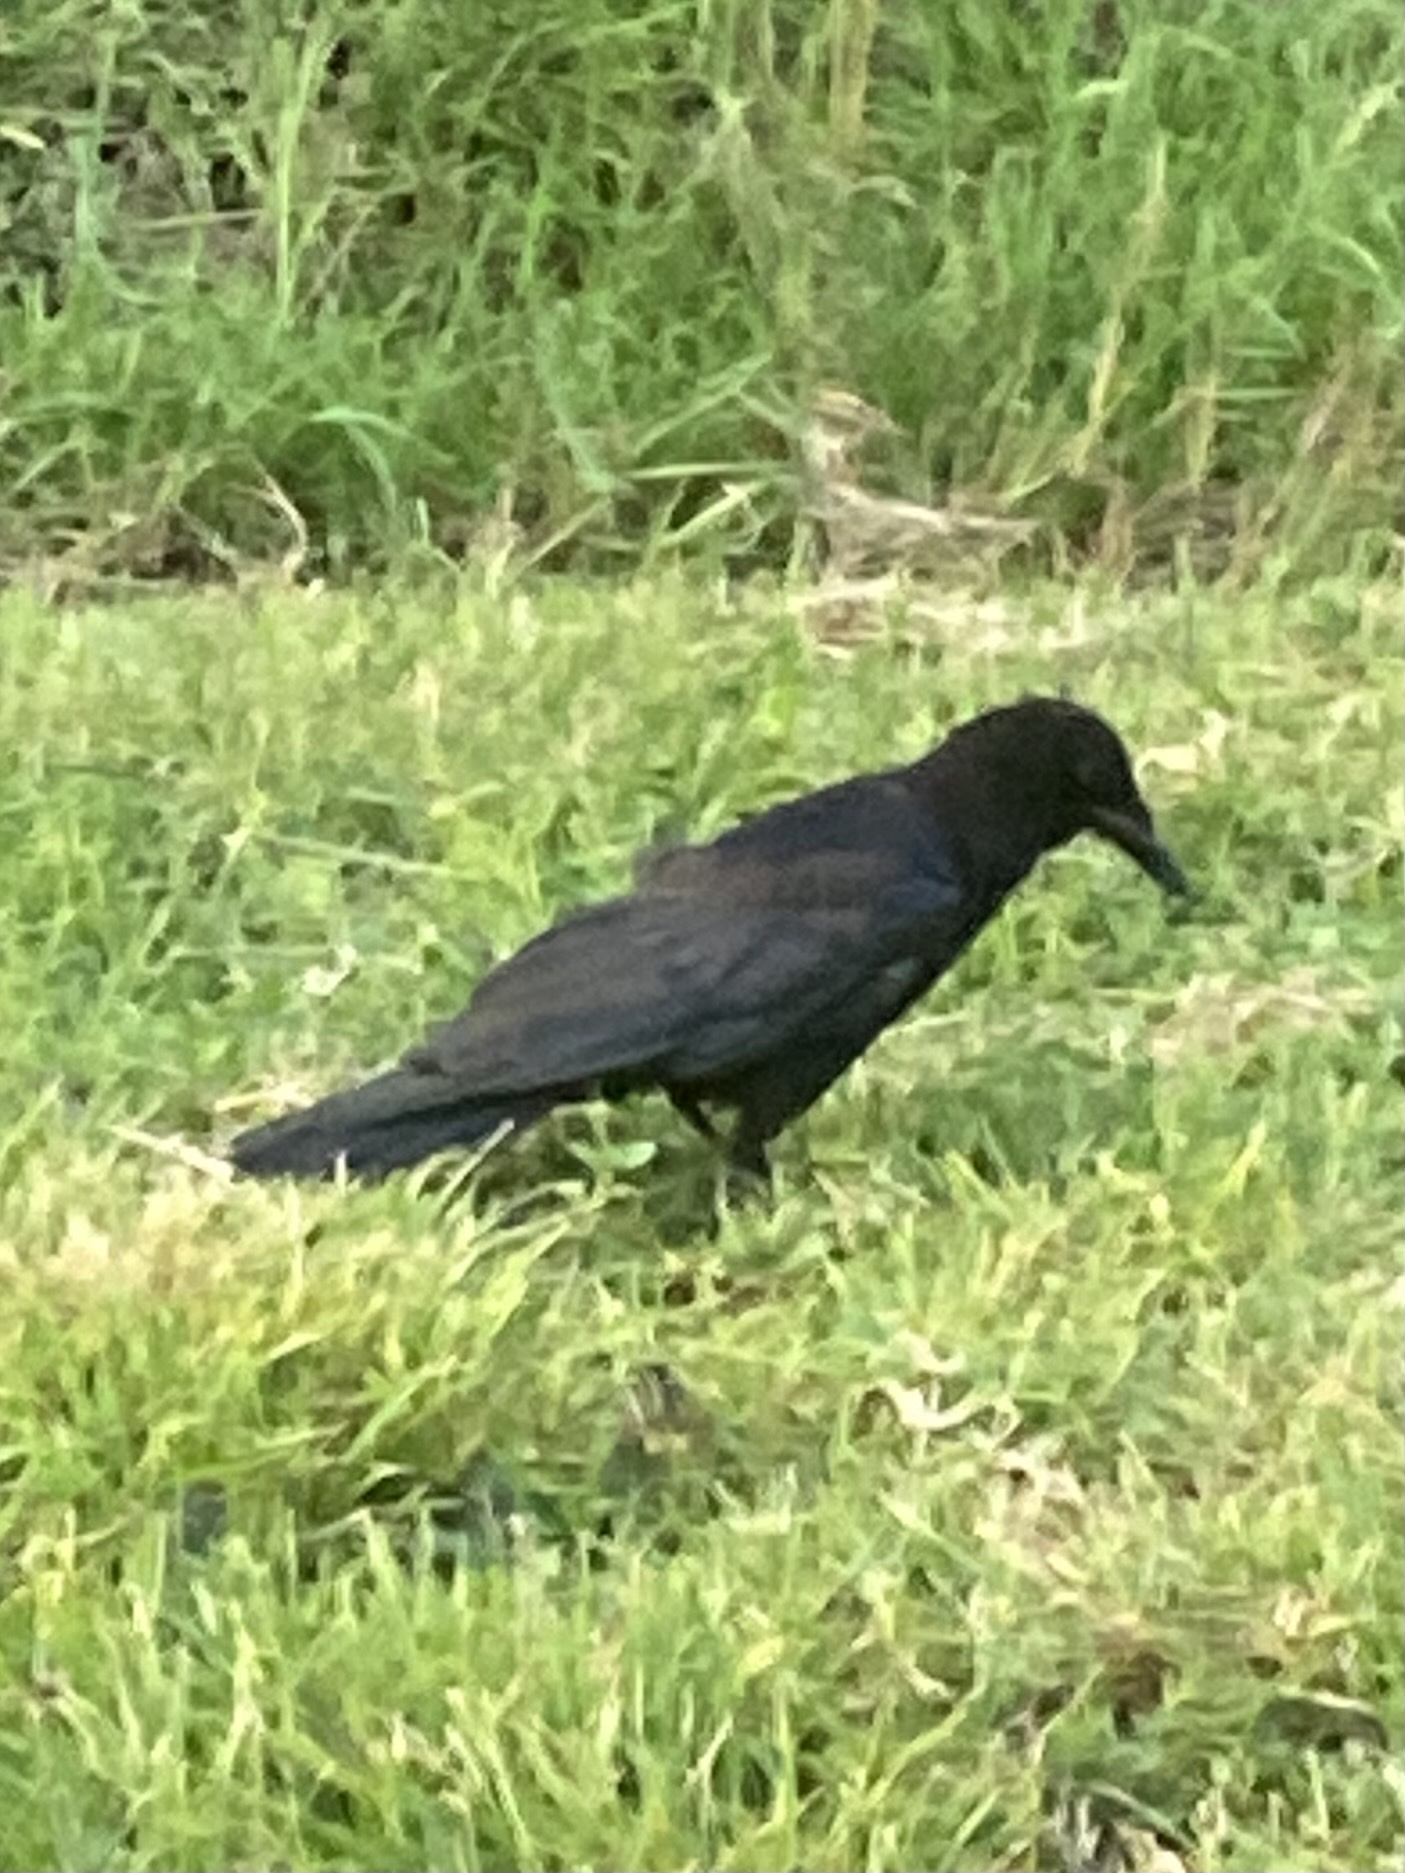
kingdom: Animalia
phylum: Chordata
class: Aves
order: Passeriformes
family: Corvidae
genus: Corvus
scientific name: Corvus brachyrhynchos
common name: American crow
